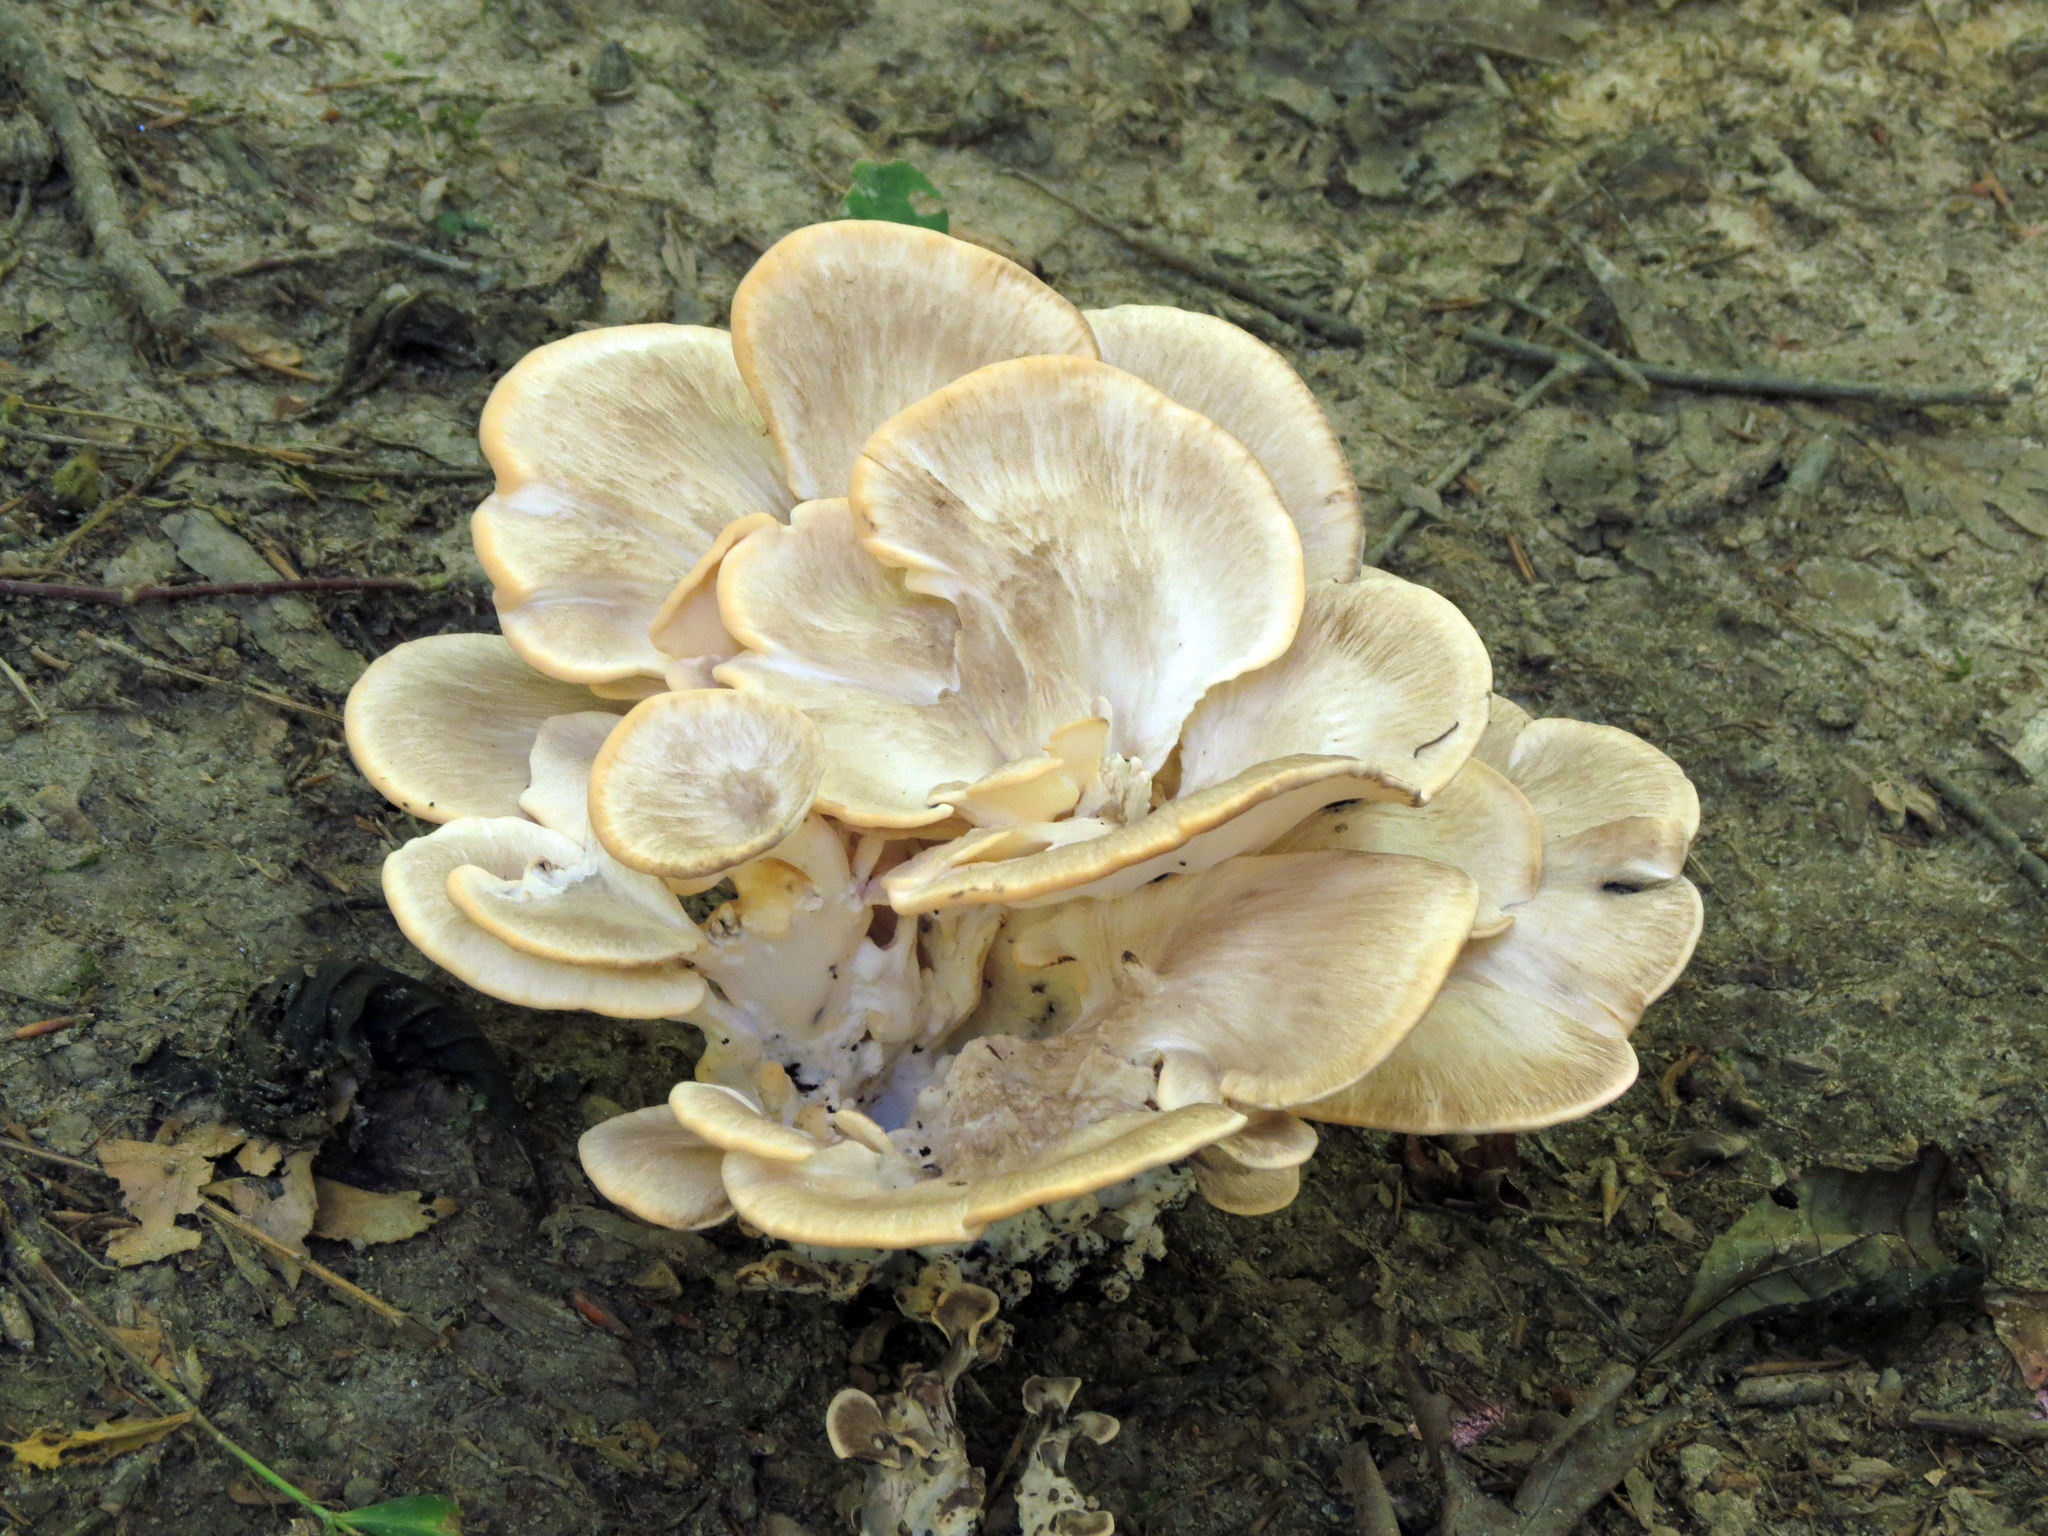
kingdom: Fungi
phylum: Basidiomycota
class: Agaricomycetes
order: Polyporales
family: Meripilaceae
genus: Meripilus
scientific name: Meripilus sumstinei
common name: Black-staining polypore
